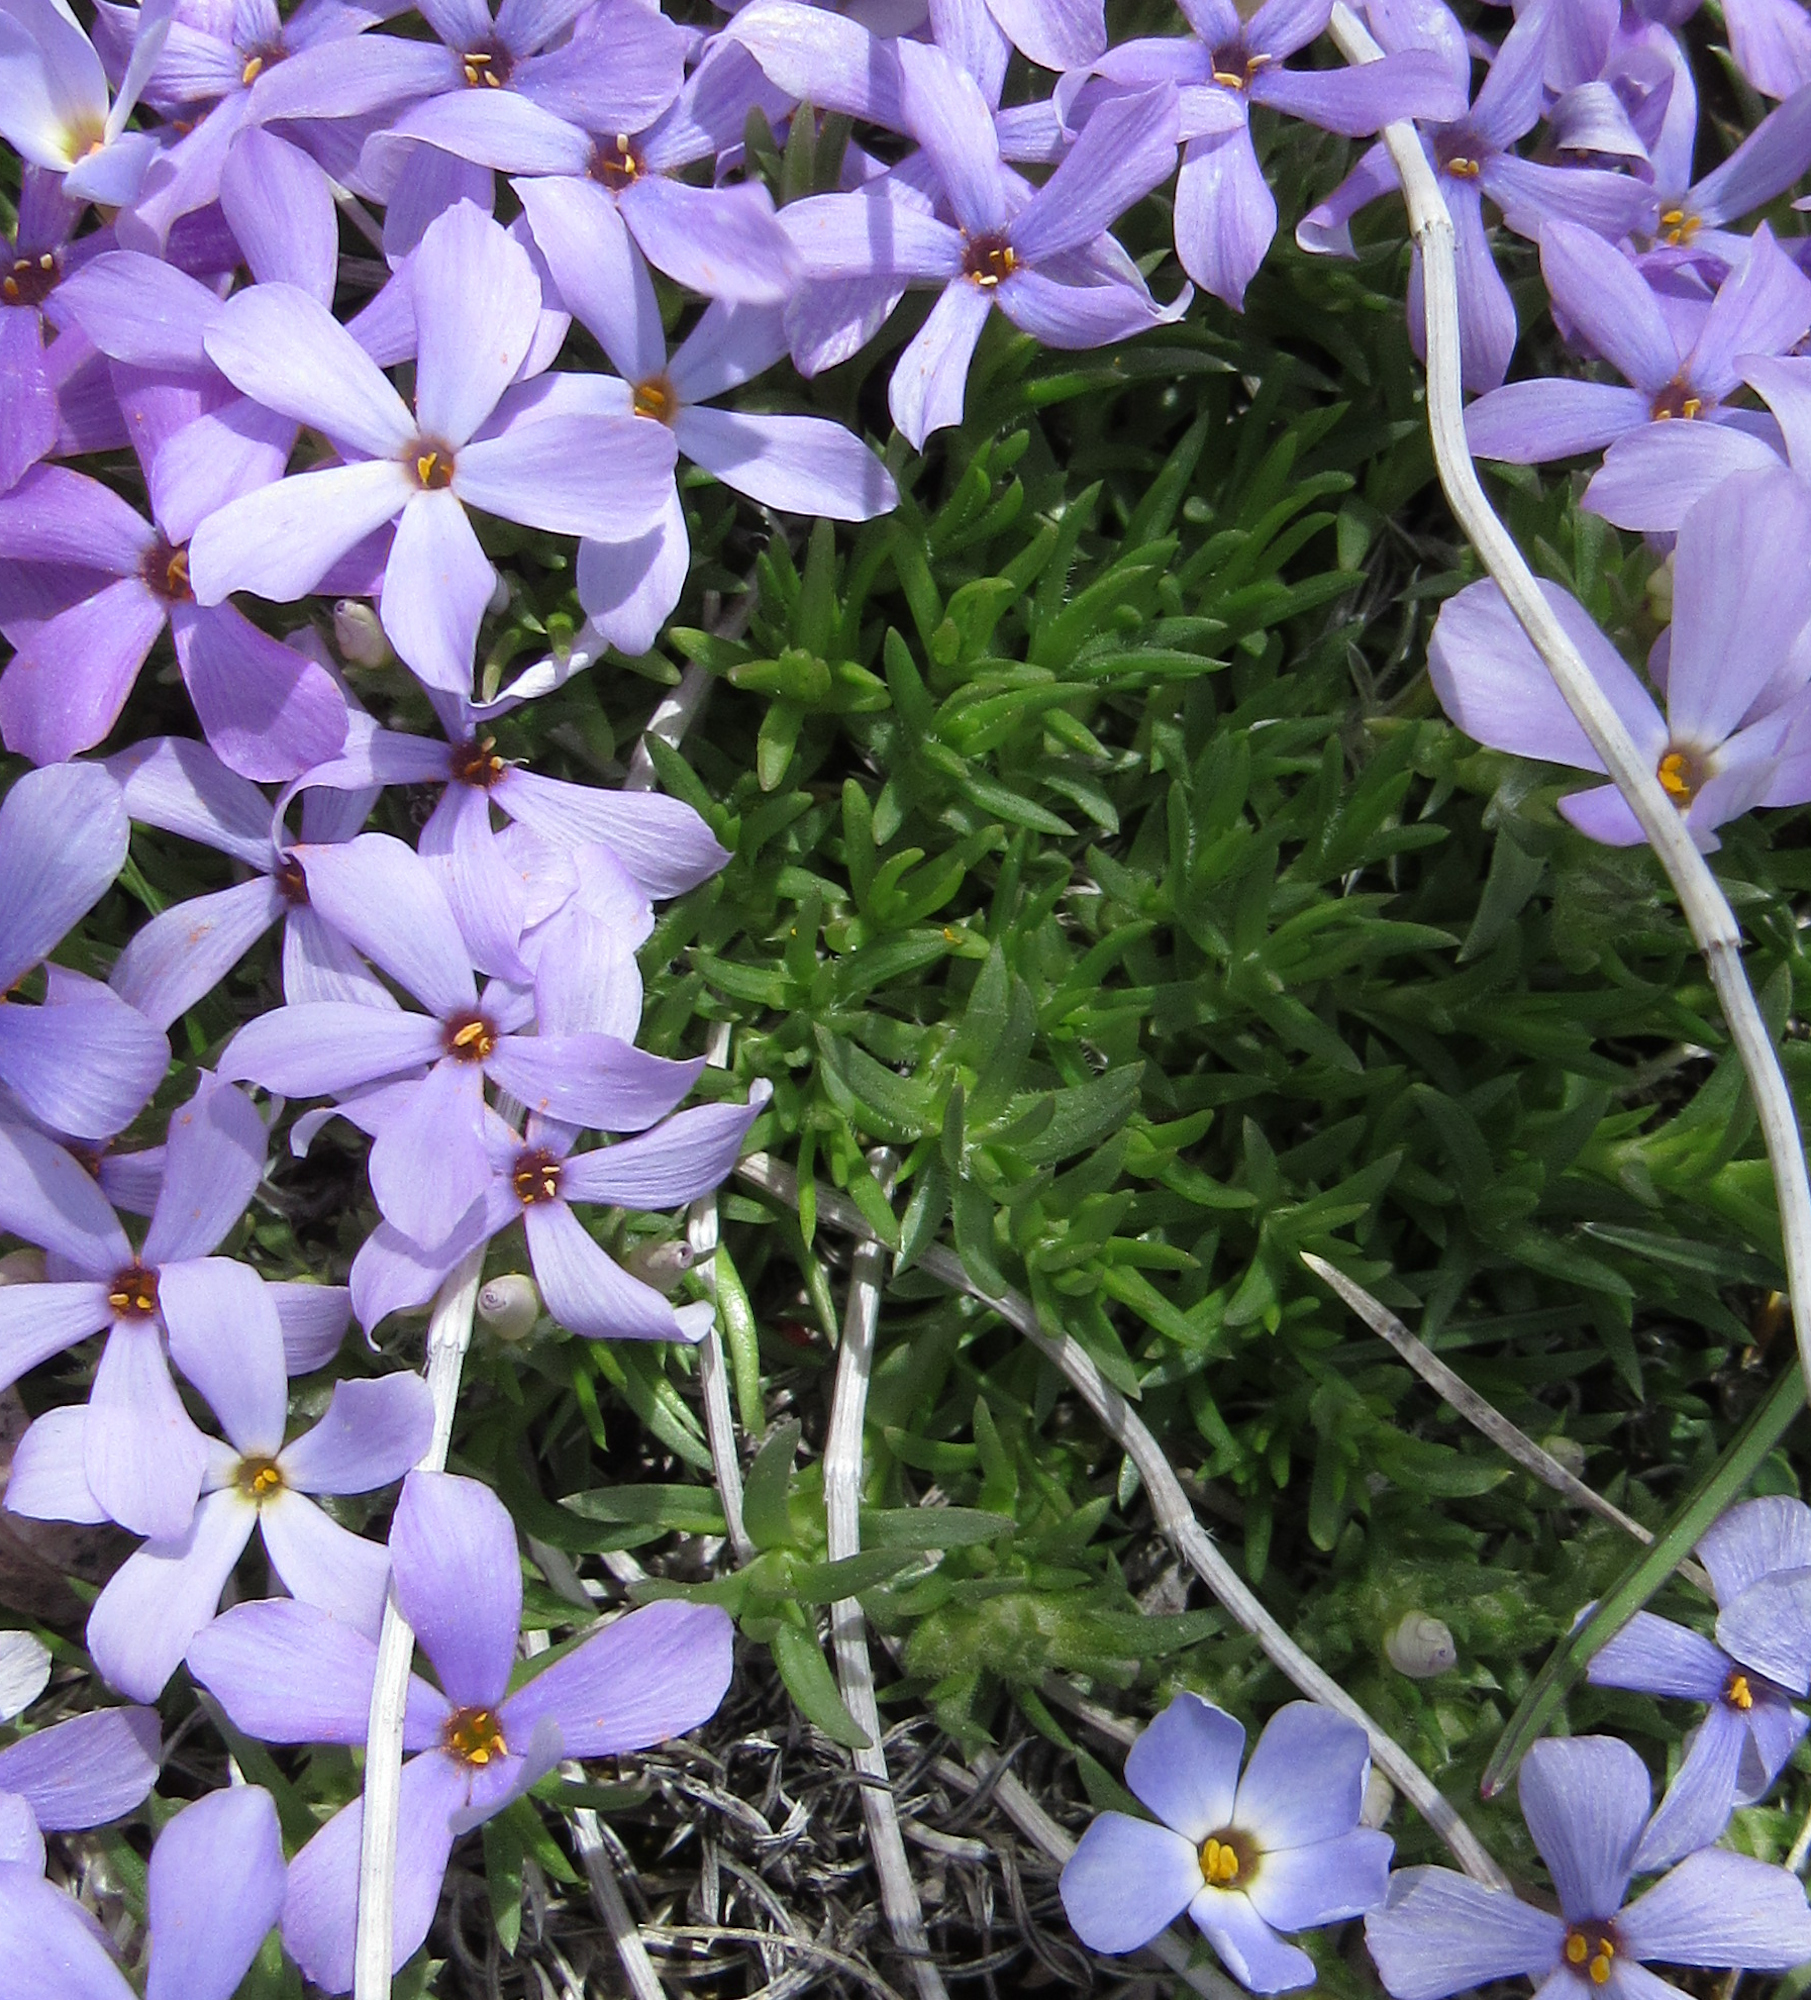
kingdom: Plantae
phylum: Tracheophyta
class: Magnoliopsida
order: Ericales
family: Polemoniaceae
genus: Phlox
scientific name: Phlox multiflora
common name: Rocky mountain phlox
